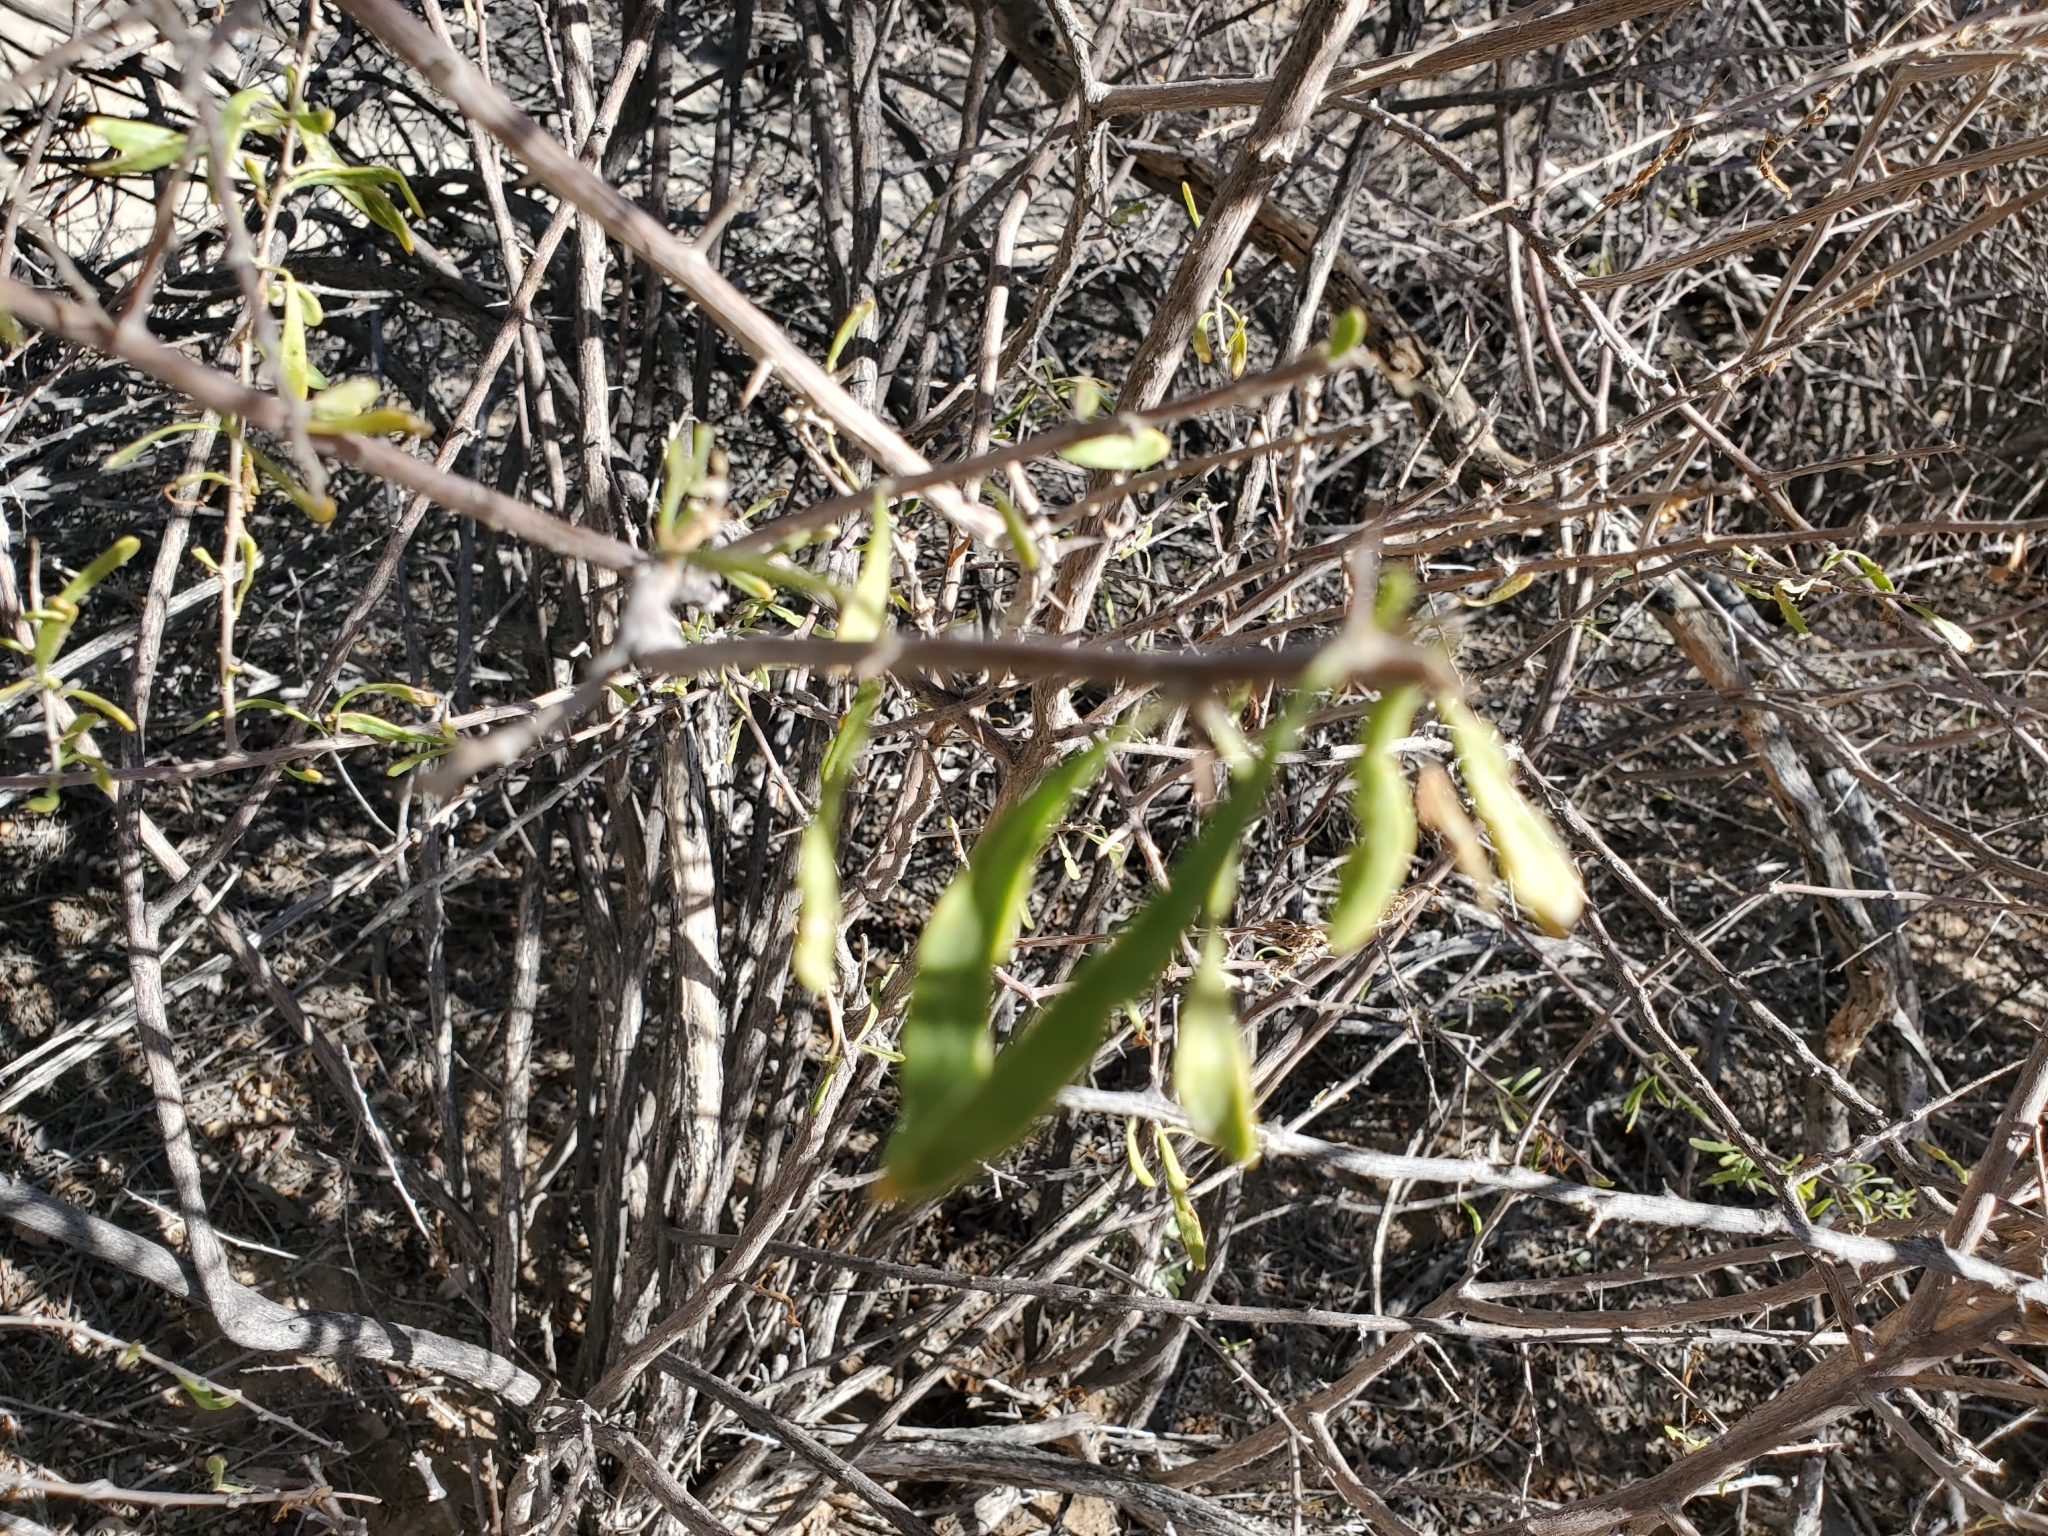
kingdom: Plantae
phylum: Tracheophyta
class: Magnoliopsida
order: Solanales
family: Solanaceae
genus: Lycium
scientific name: Lycium andersonii
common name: Water-jacket
